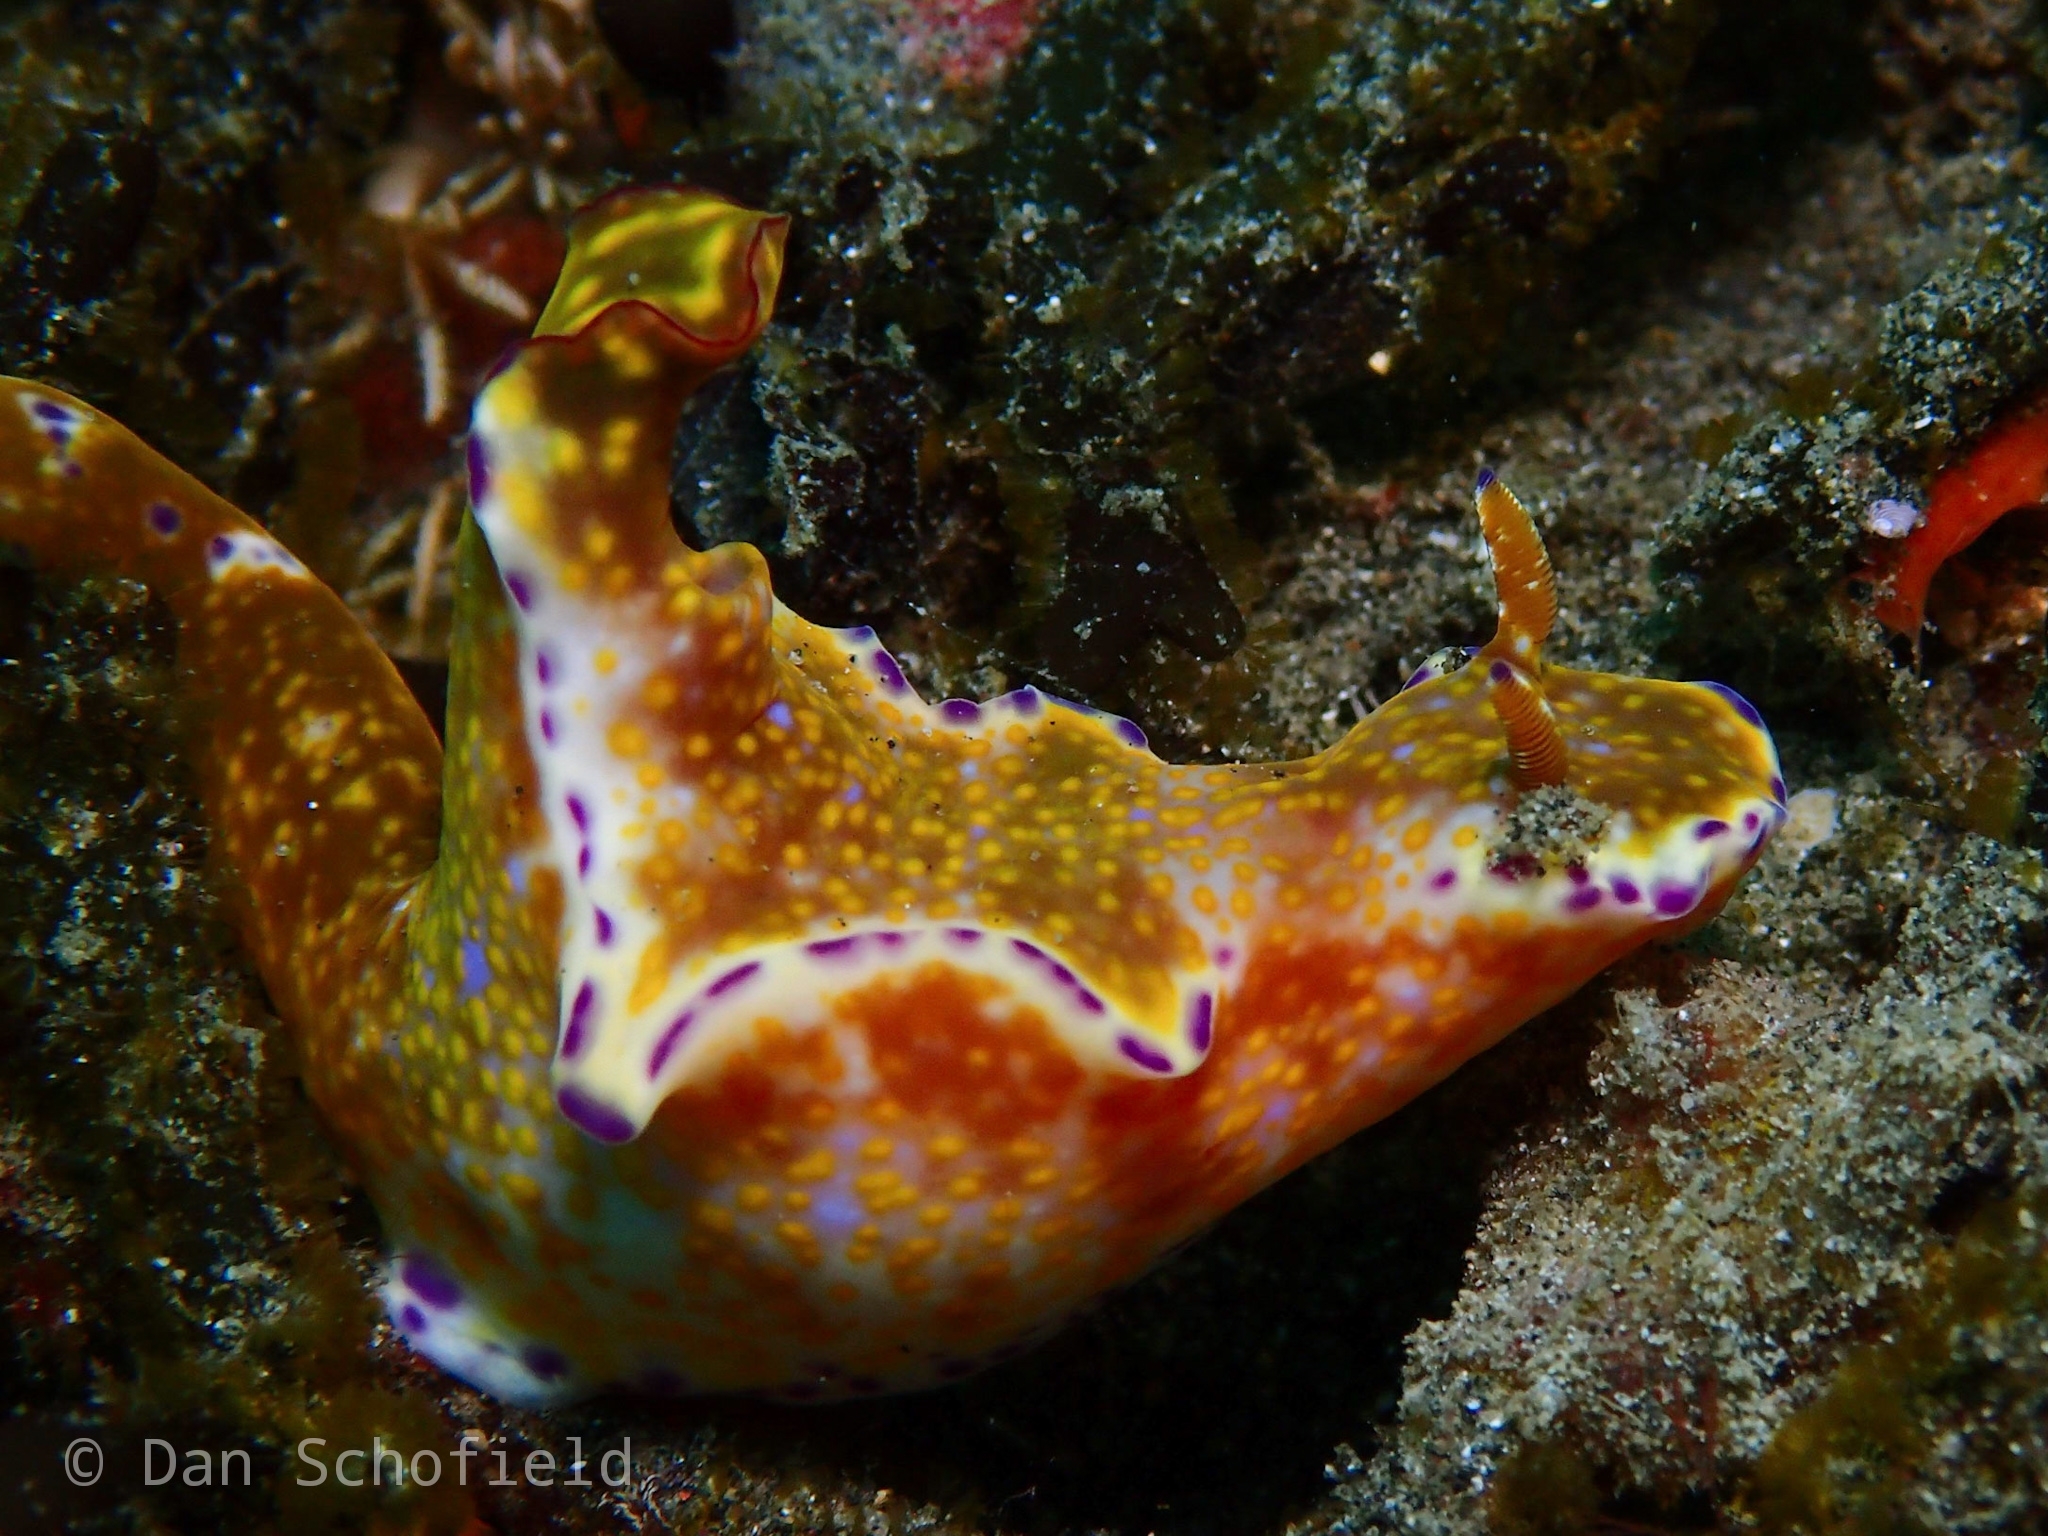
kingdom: Animalia
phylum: Mollusca
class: Gastropoda
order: Nudibranchia
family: Chromodorididae
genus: Ceratosoma
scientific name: Ceratosoma tenue
